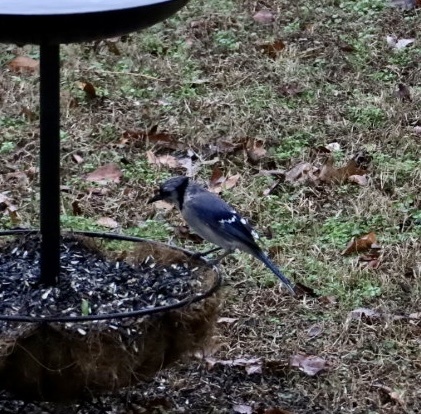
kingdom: Animalia
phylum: Chordata
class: Aves
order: Passeriformes
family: Corvidae
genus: Cyanocitta
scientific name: Cyanocitta cristata
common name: Blue jay
